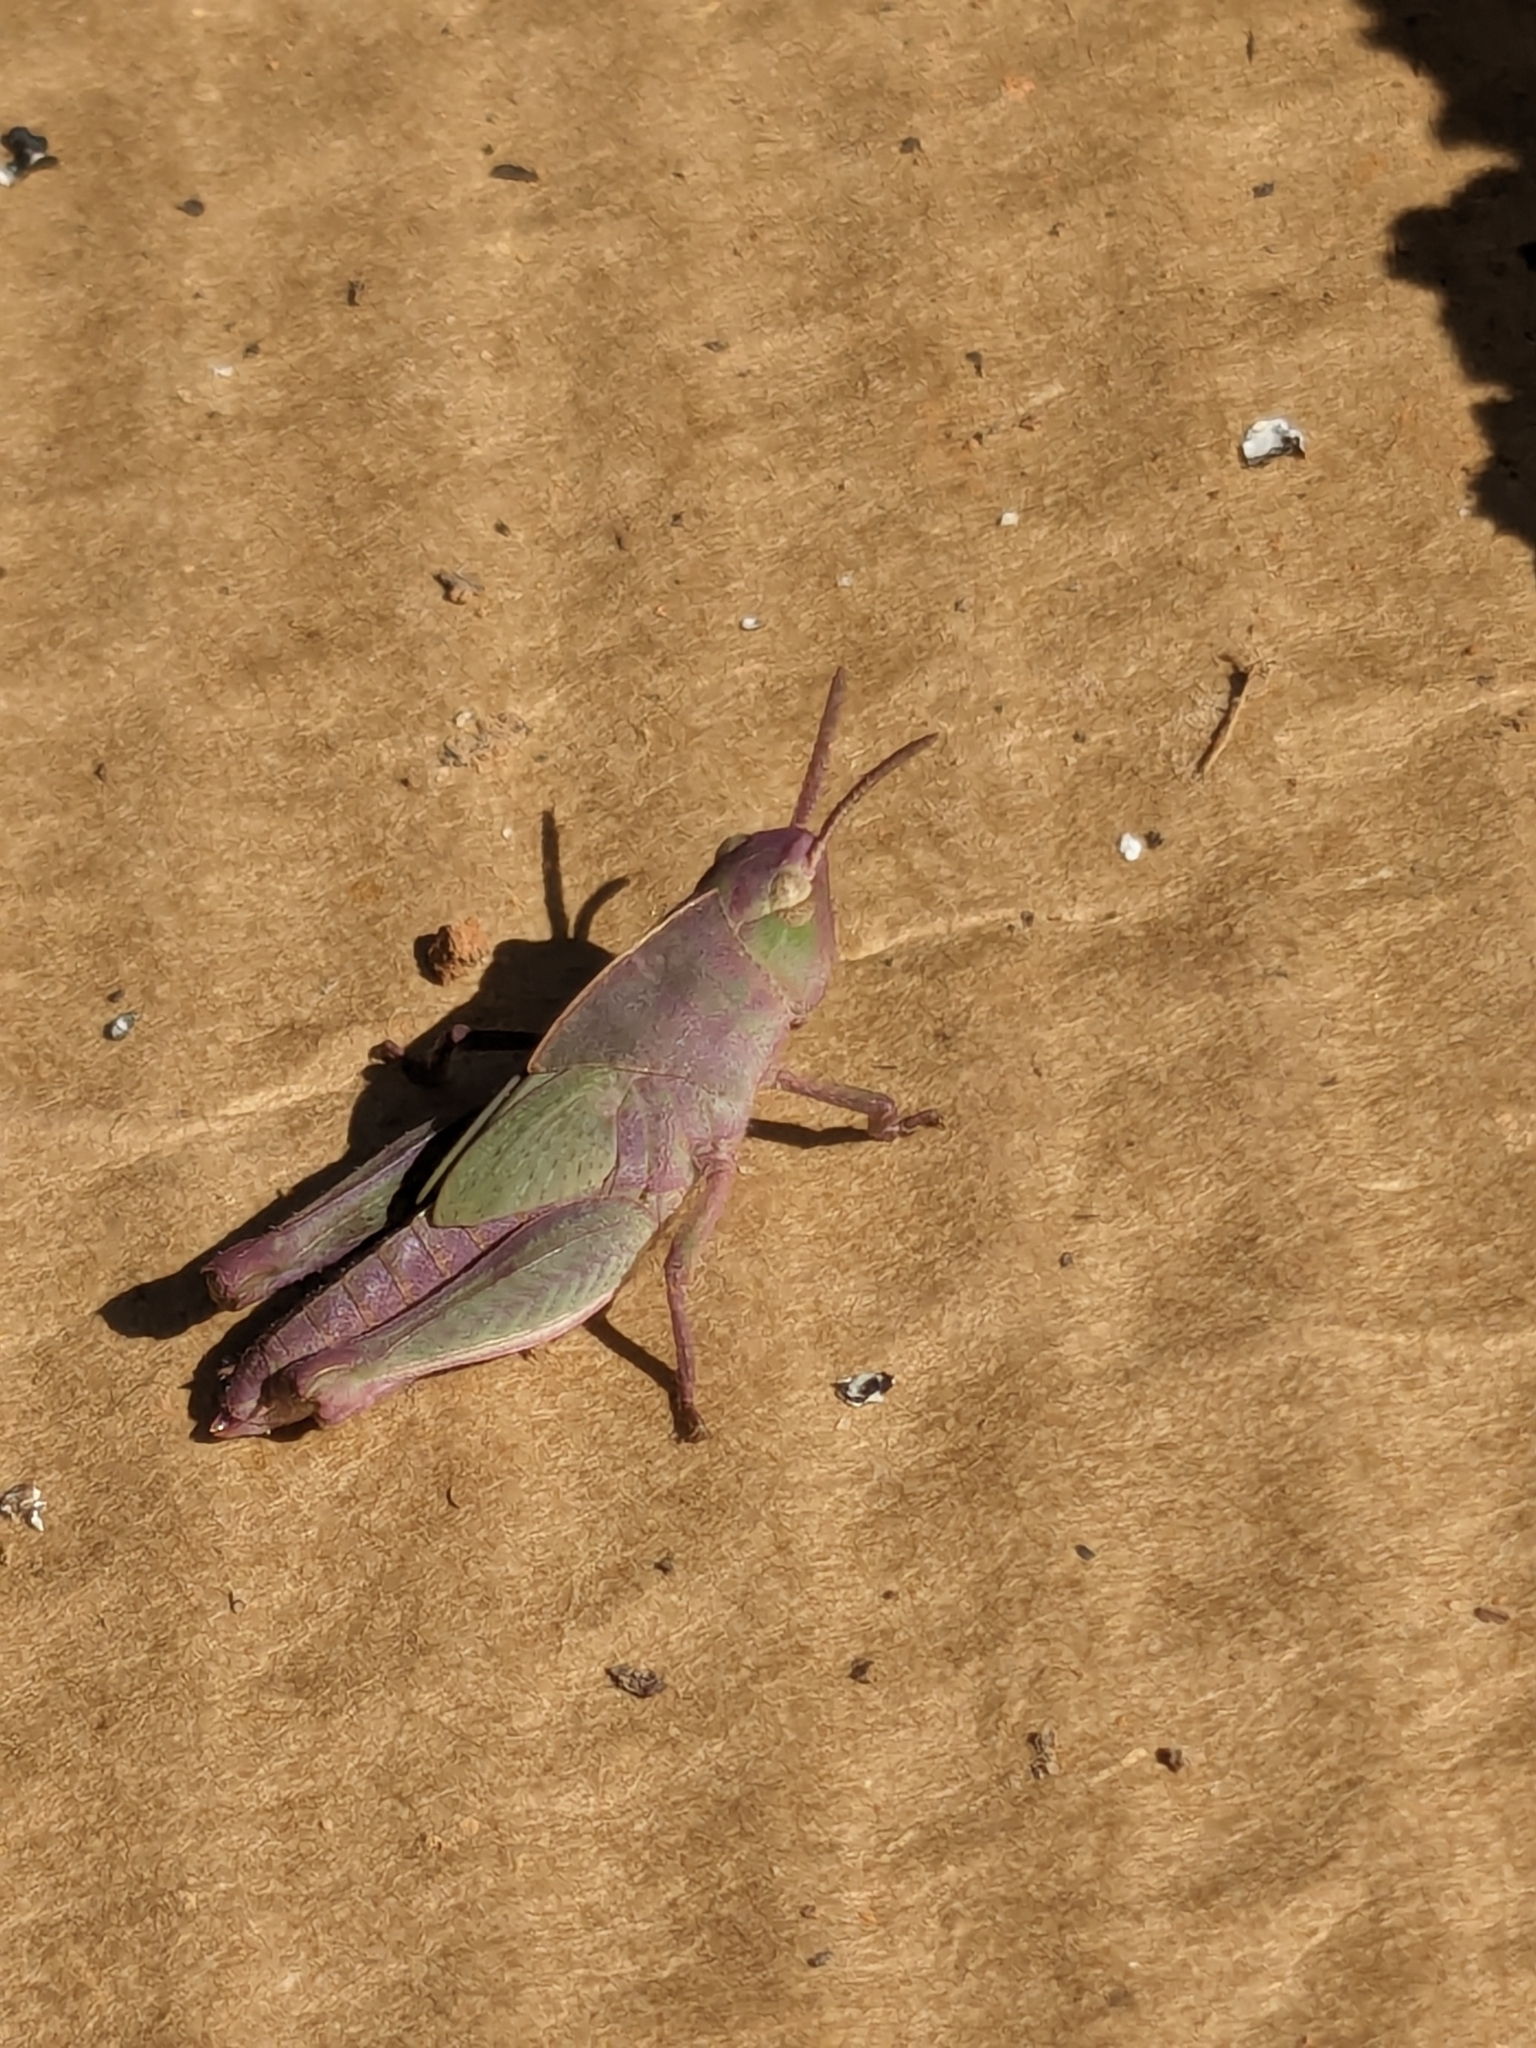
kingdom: Animalia
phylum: Arthropoda
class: Insecta
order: Orthoptera
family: Acrididae
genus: Chortophaga
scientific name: Chortophaga viridifasciata
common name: Green-striped grasshopper
